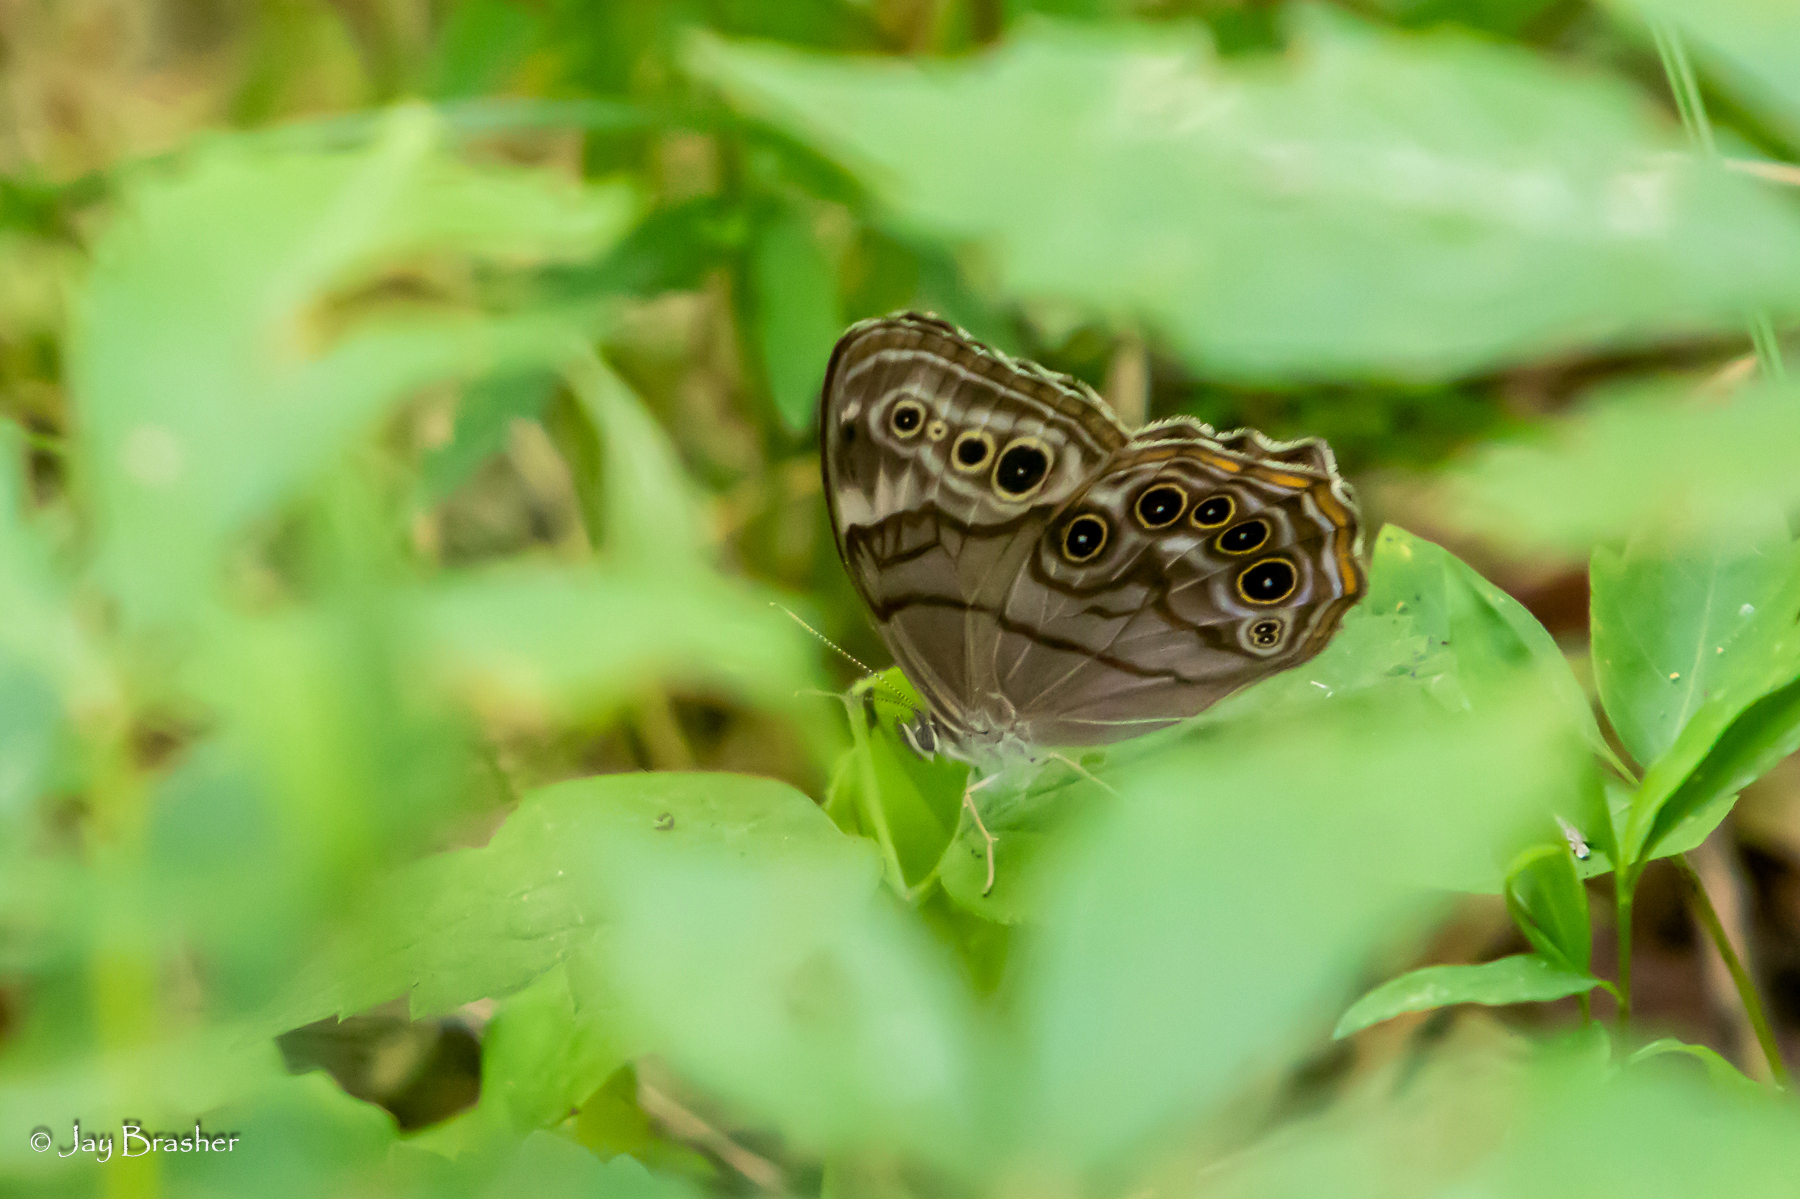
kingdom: Animalia
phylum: Arthropoda
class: Insecta
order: Lepidoptera
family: Nymphalidae
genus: Lethe
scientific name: Lethe anthedon
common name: Northern pearly-eye
